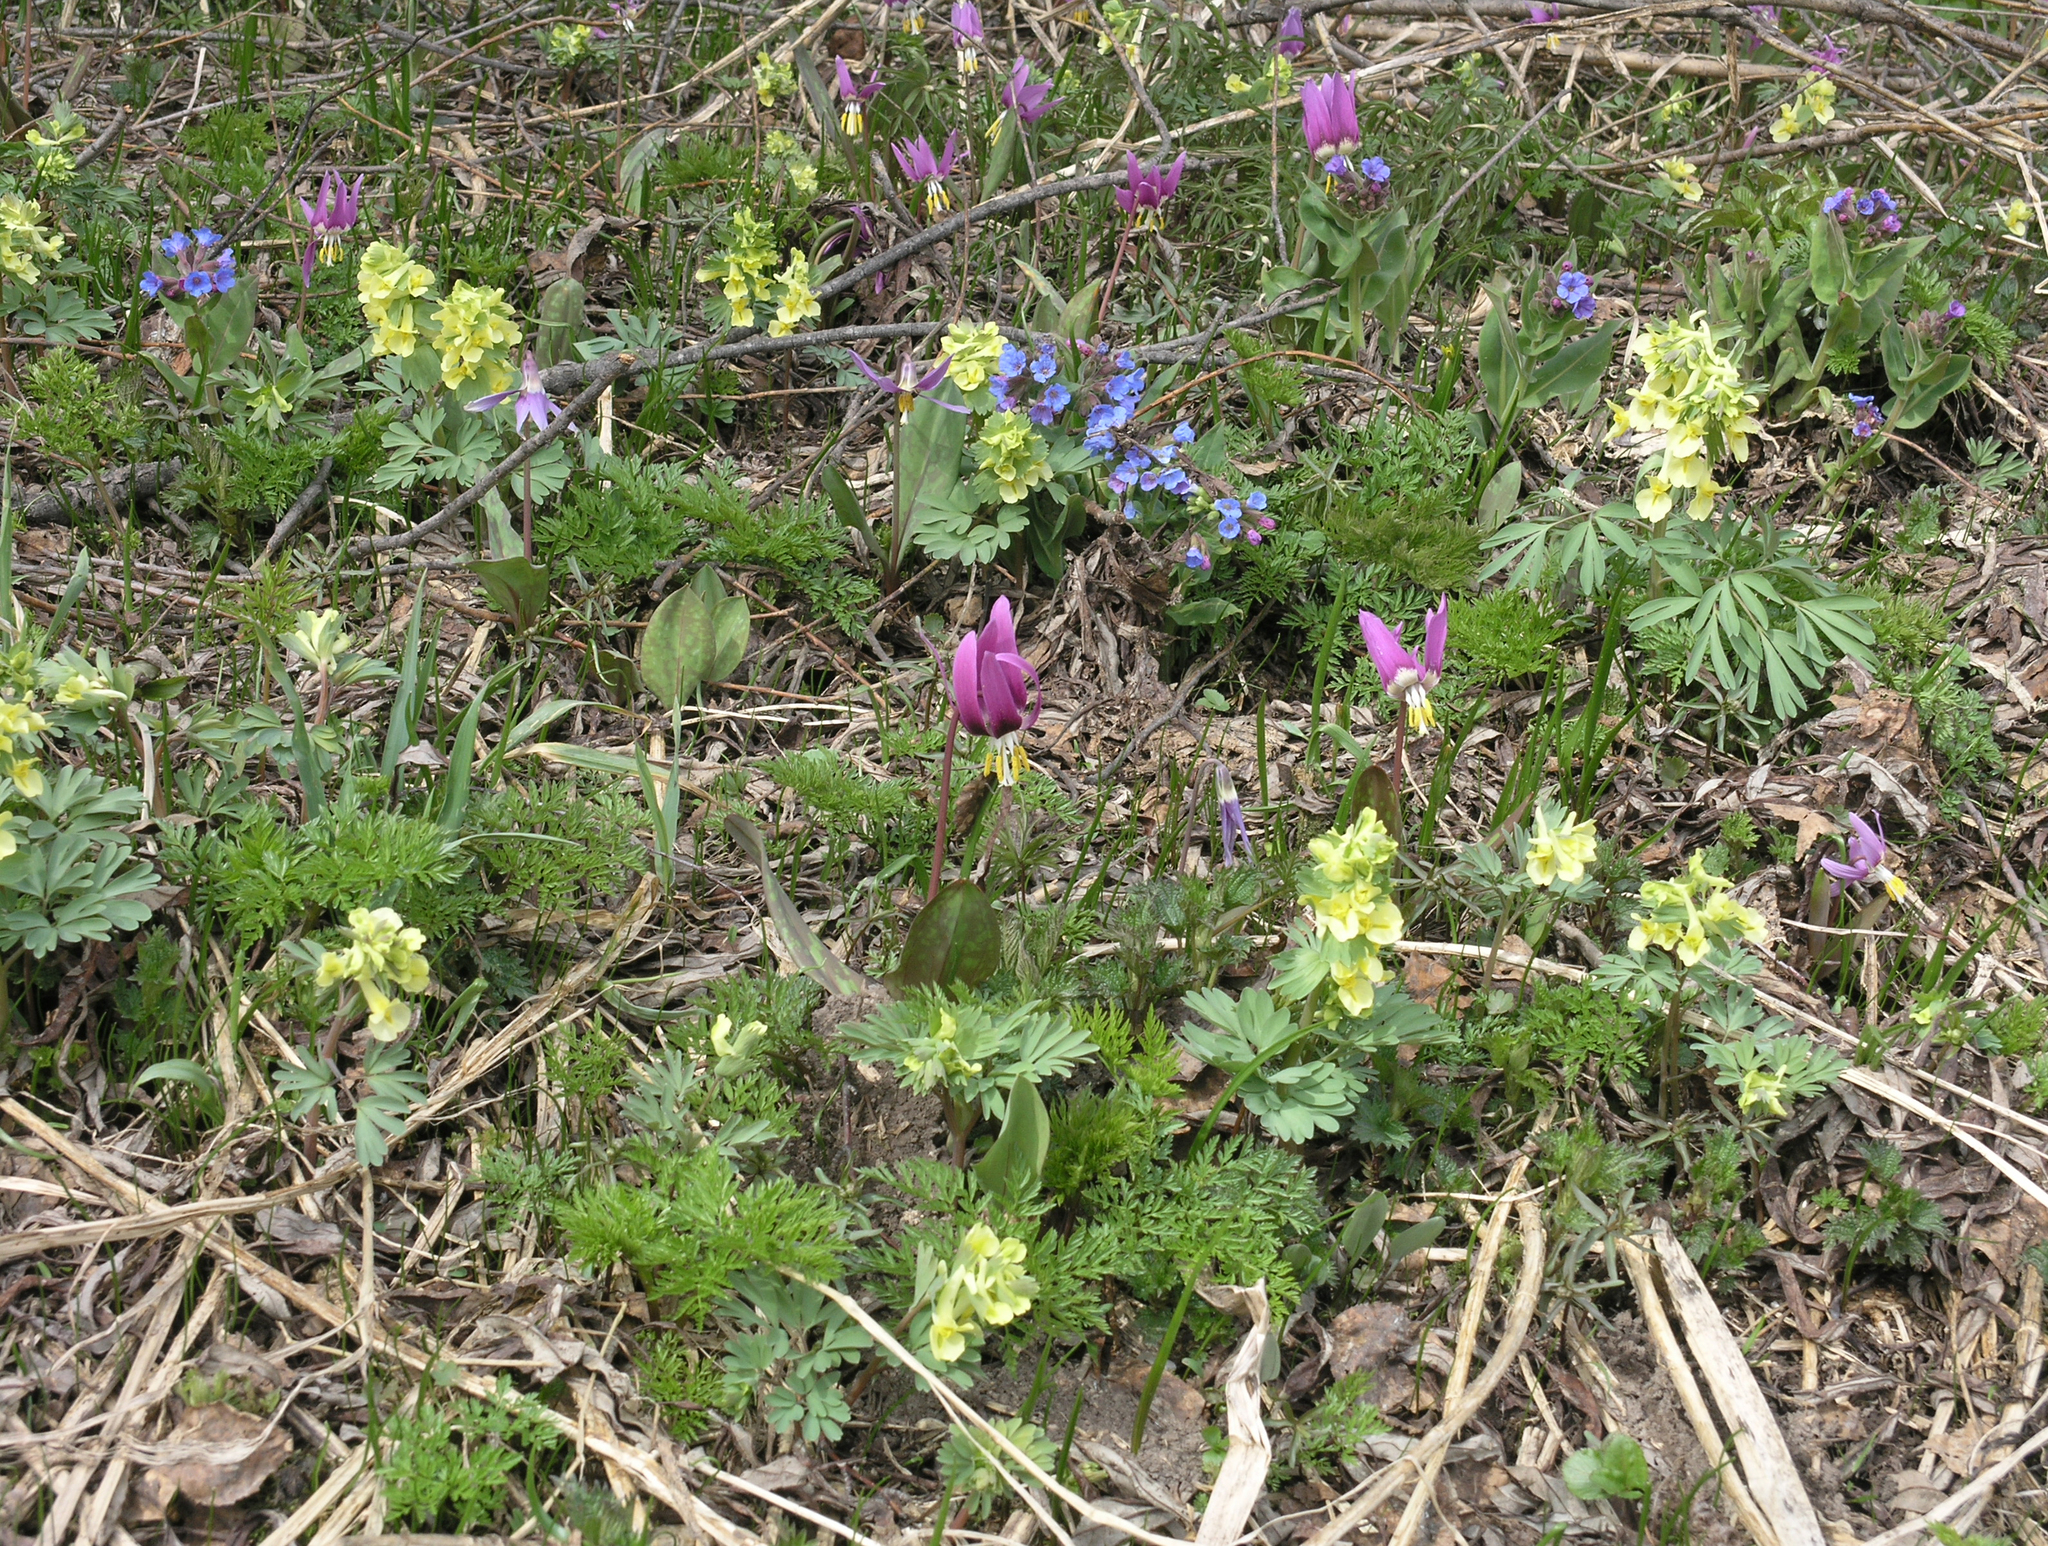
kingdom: Plantae
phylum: Tracheophyta
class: Magnoliopsida
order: Ranunculales
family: Papaveraceae
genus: Corydalis
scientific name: Corydalis bracteata
